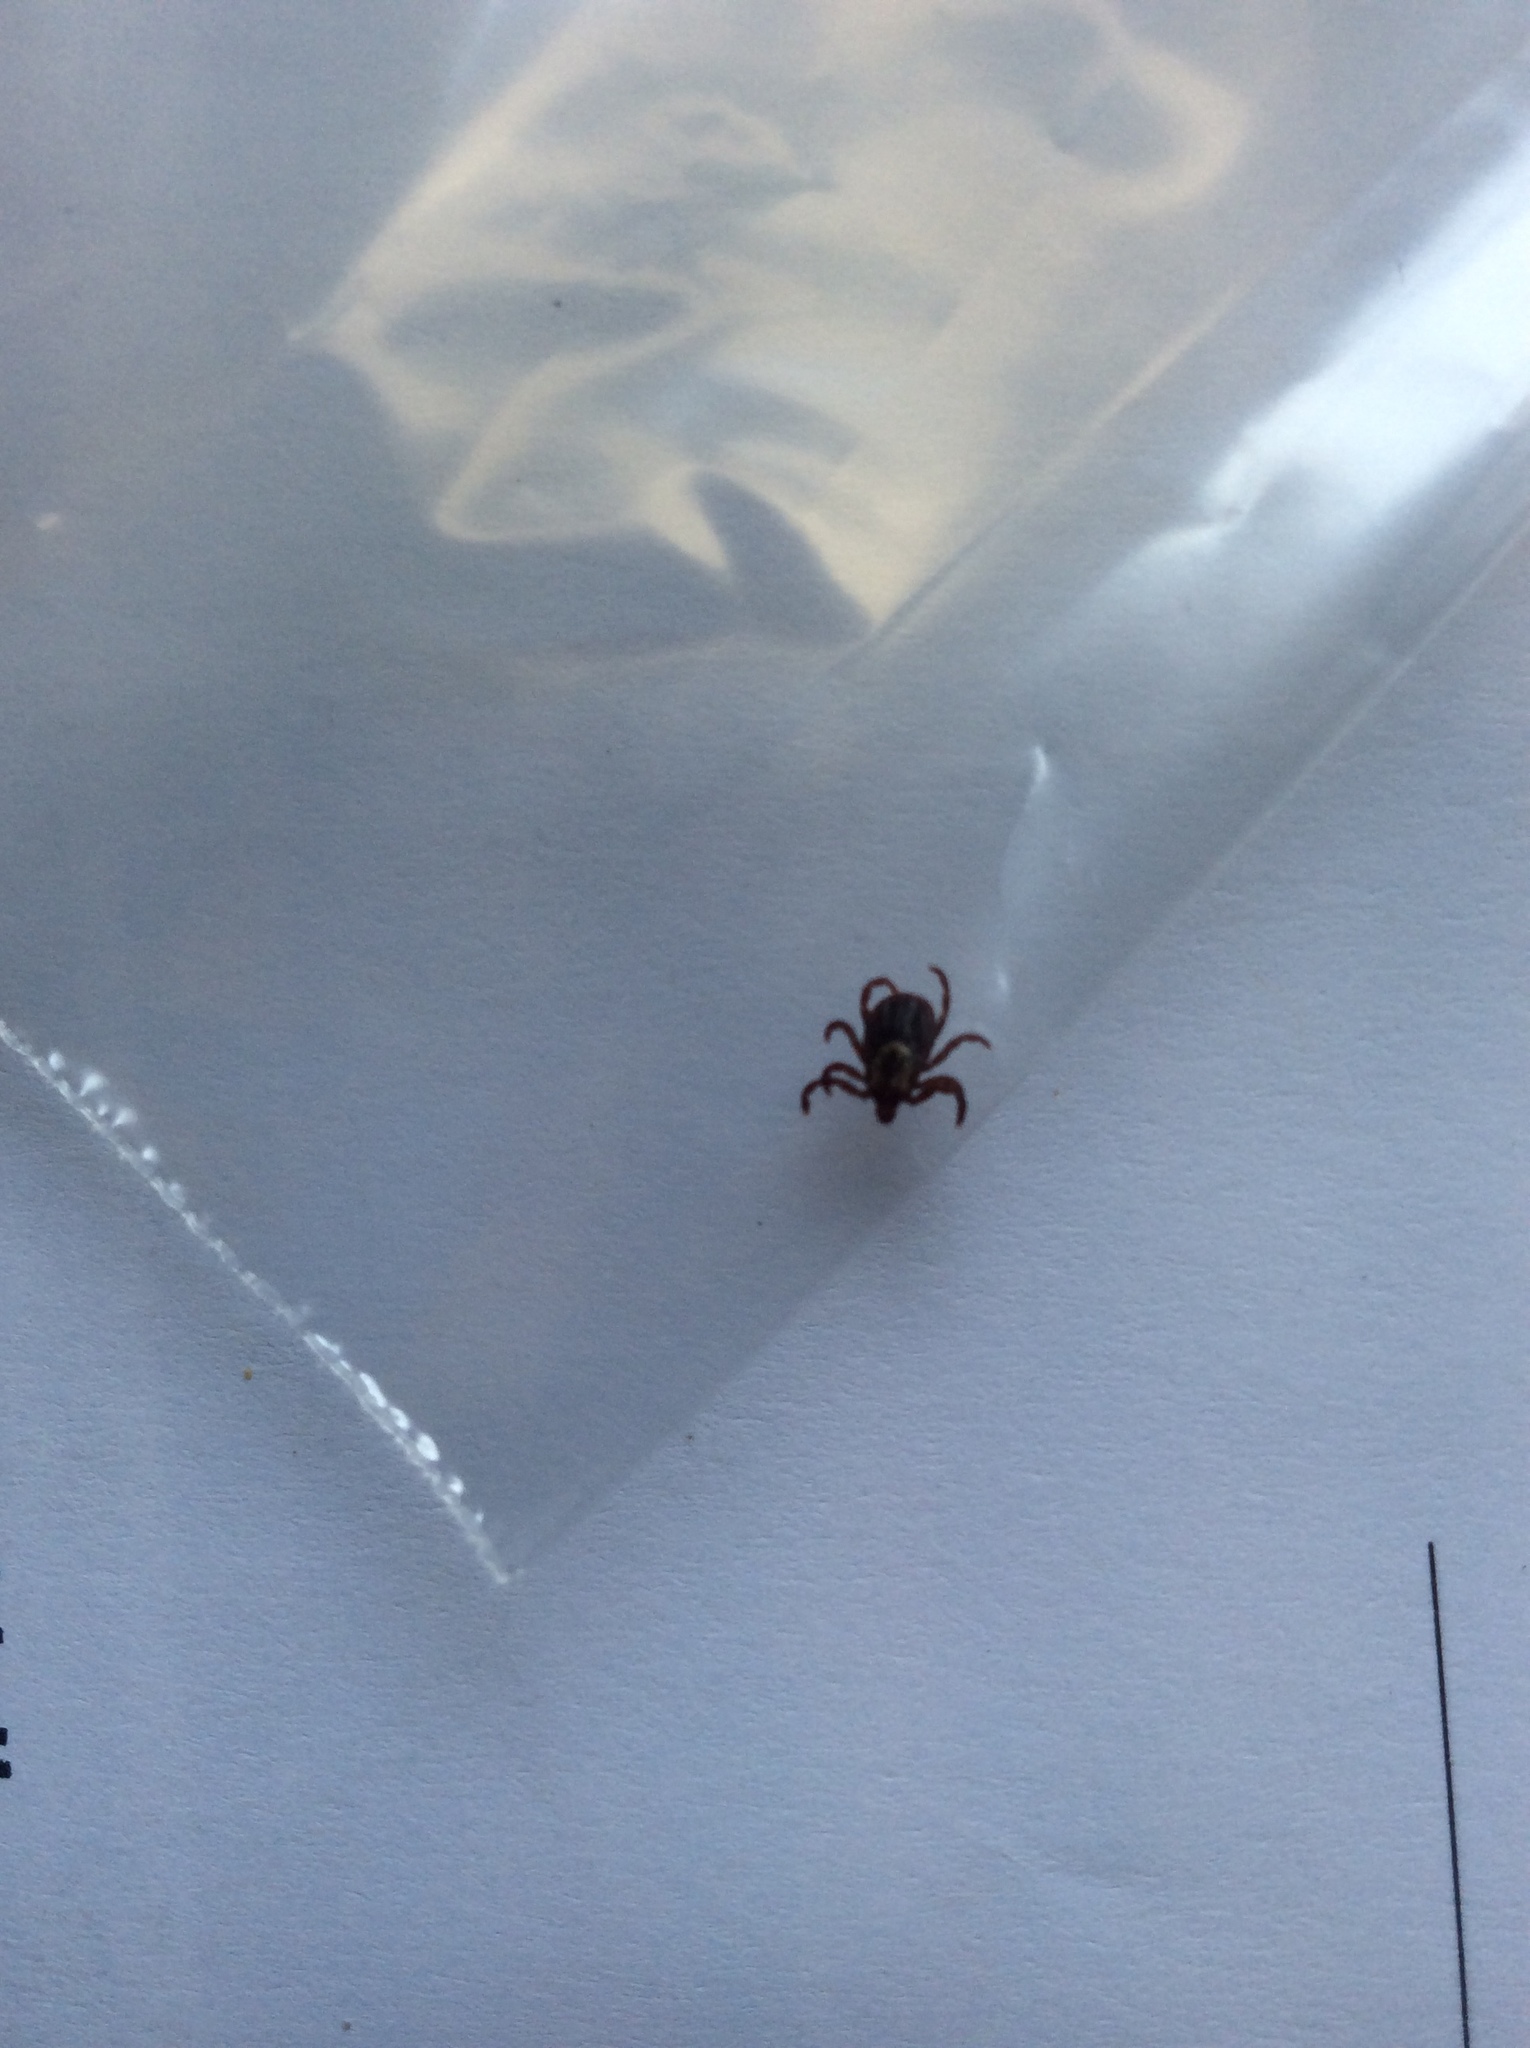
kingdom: Animalia
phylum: Arthropoda
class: Arachnida
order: Ixodida
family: Ixodidae
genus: Dermacentor
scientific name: Dermacentor variabilis
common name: American dog tick
